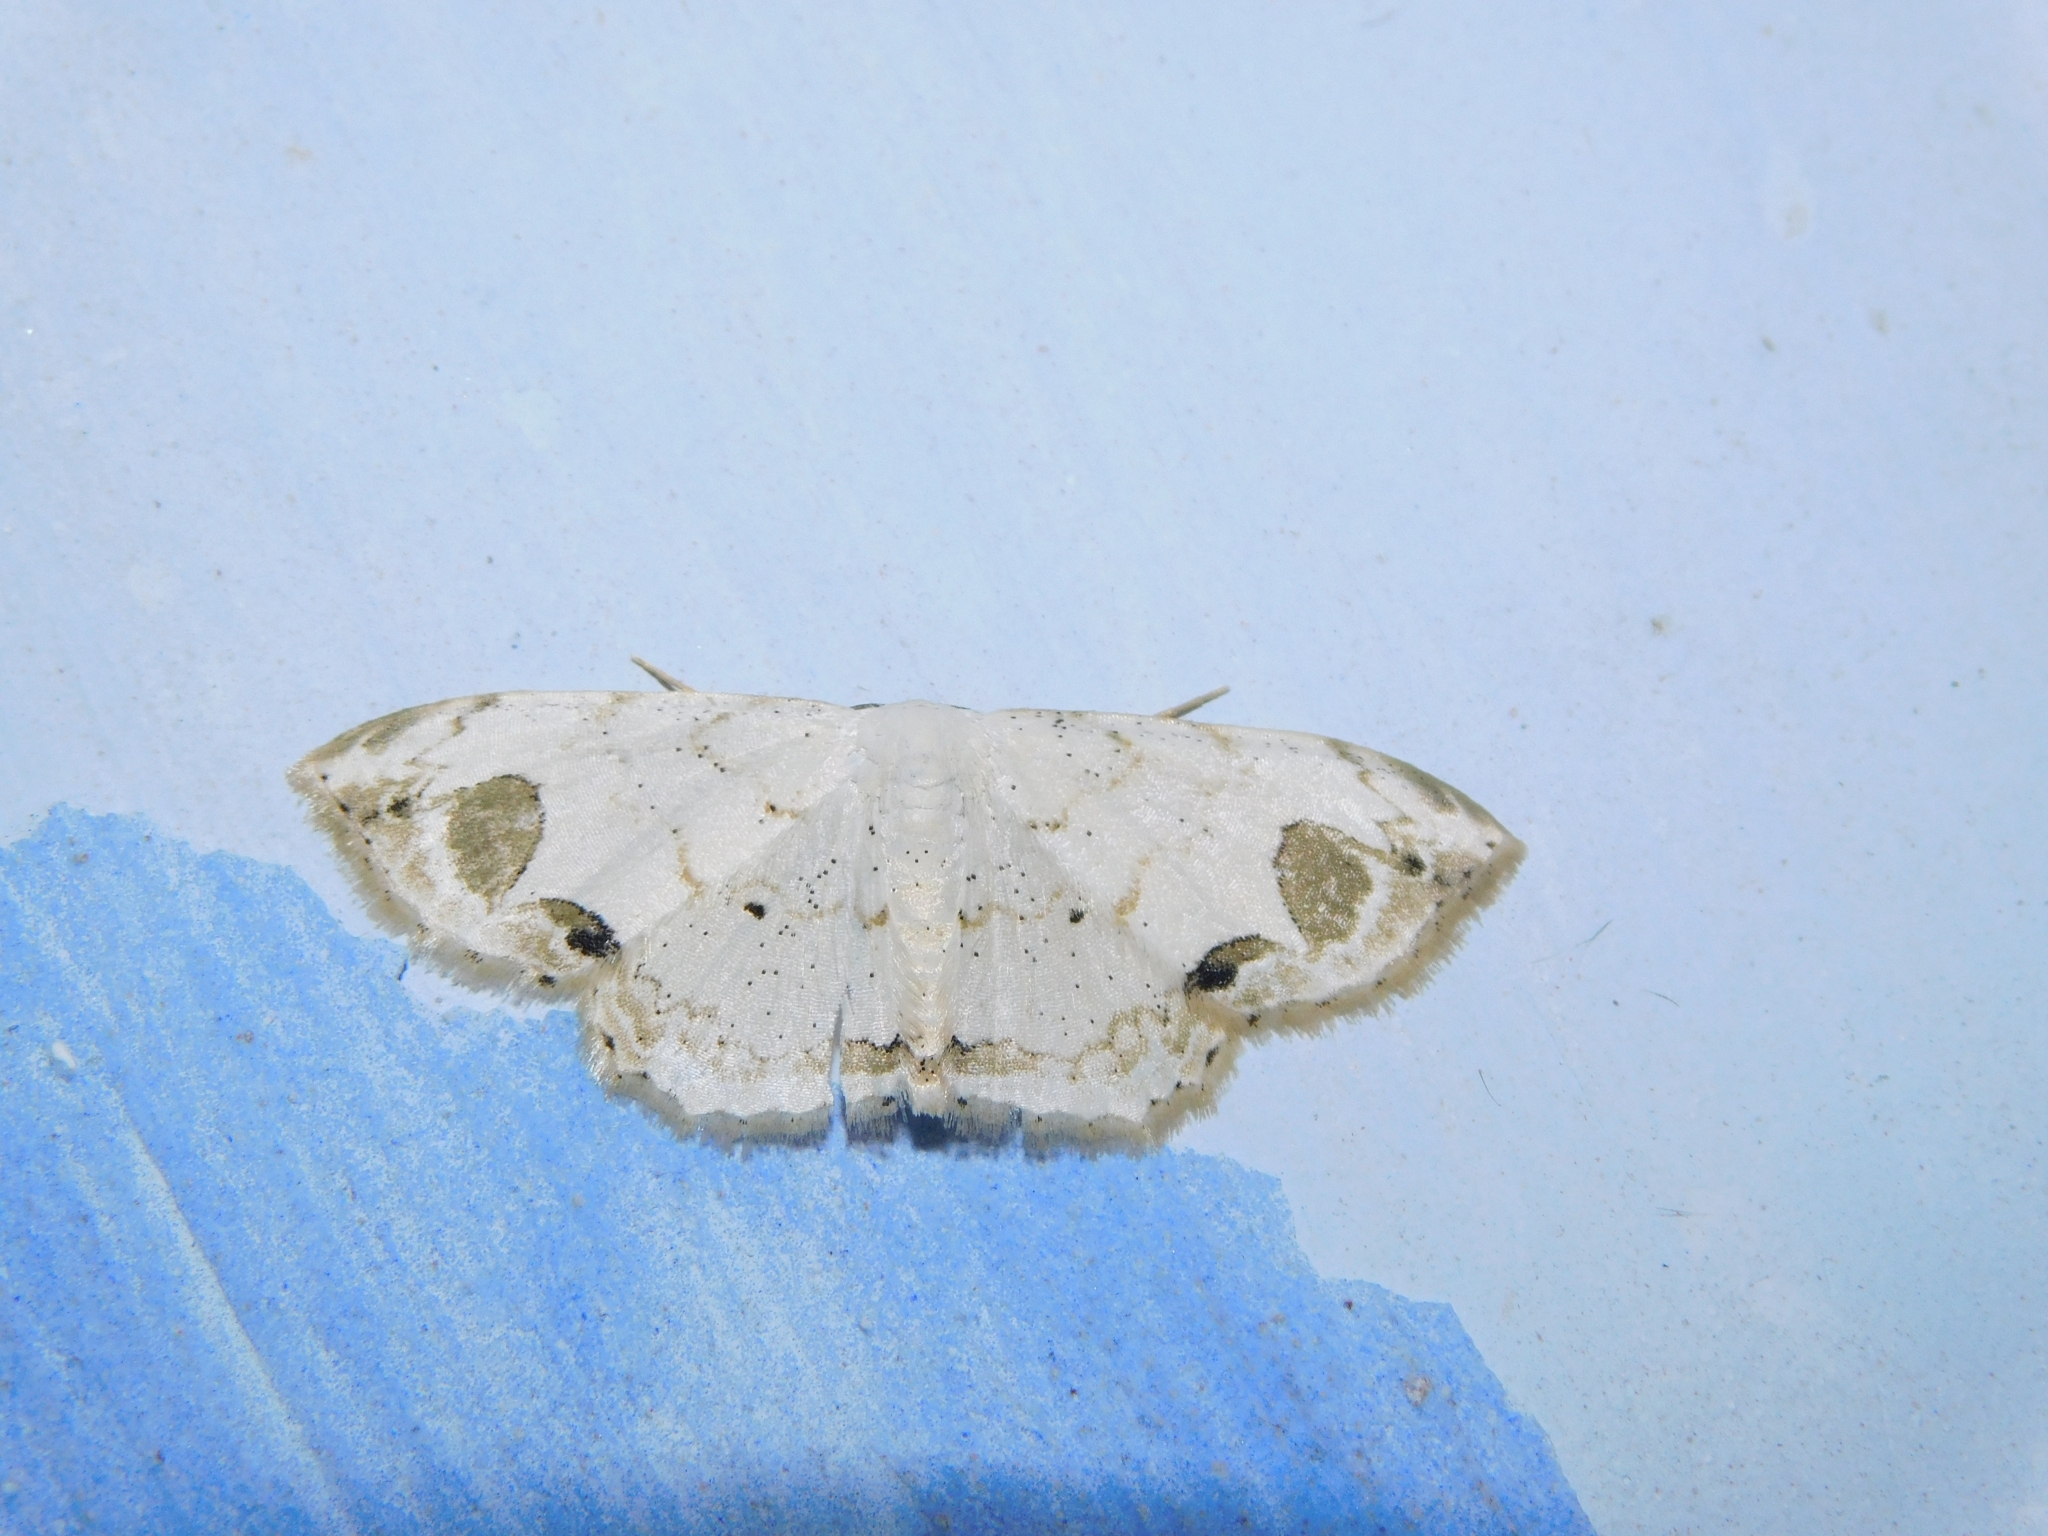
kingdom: Animalia
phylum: Arthropoda
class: Insecta
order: Lepidoptera
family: Geometridae
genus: Scopula
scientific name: Scopula butleri
